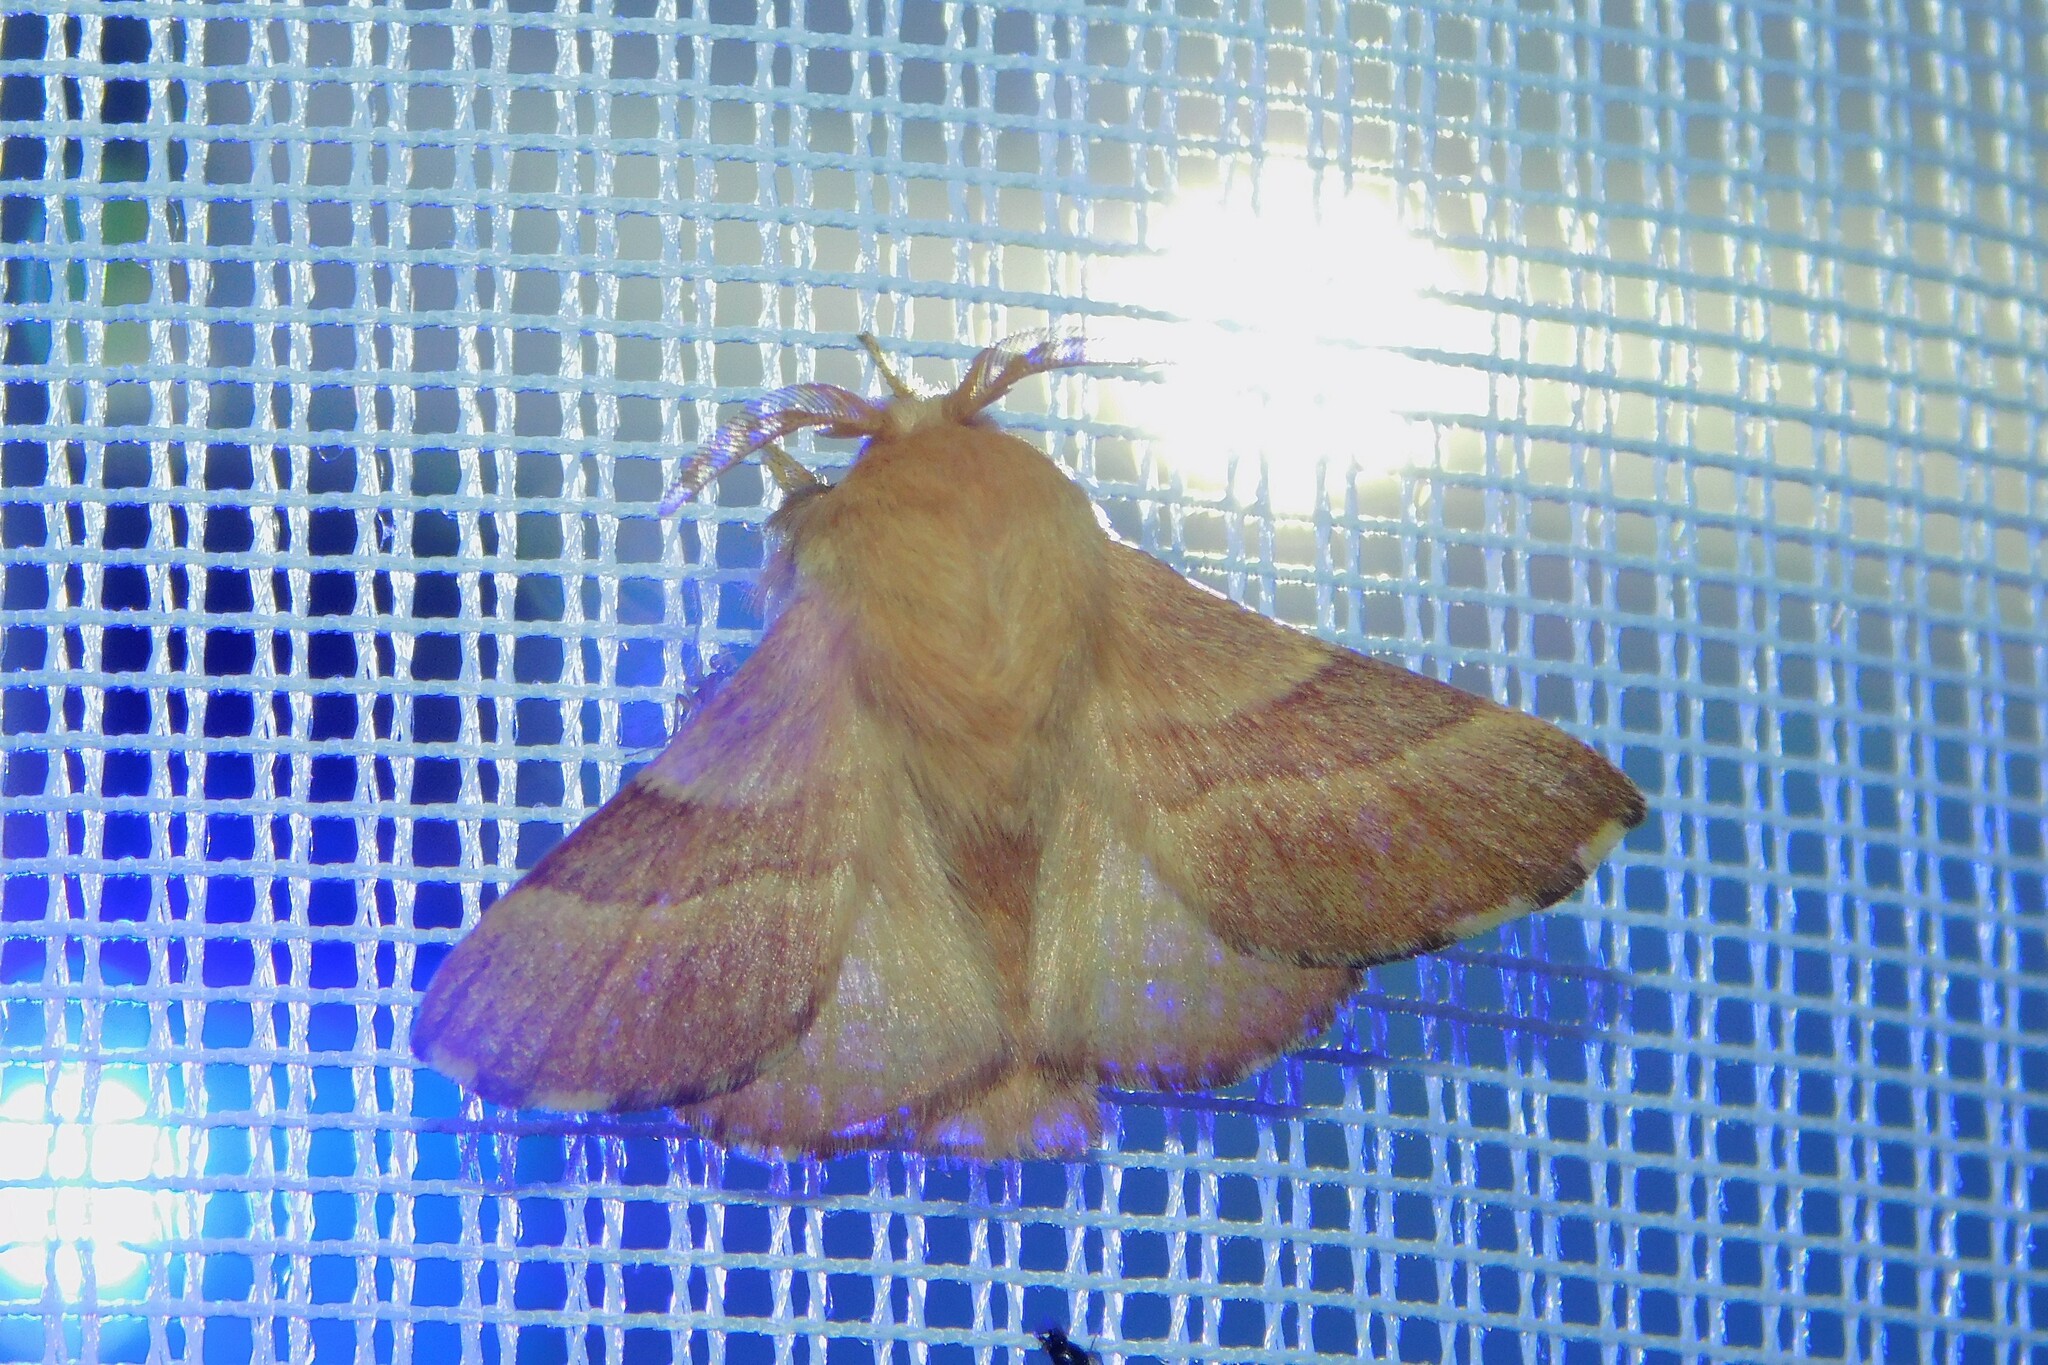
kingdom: Animalia
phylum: Arthropoda
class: Insecta
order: Lepidoptera
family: Lasiocampidae
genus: Malacosoma
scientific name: Malacosoma neustria
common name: The lackey
